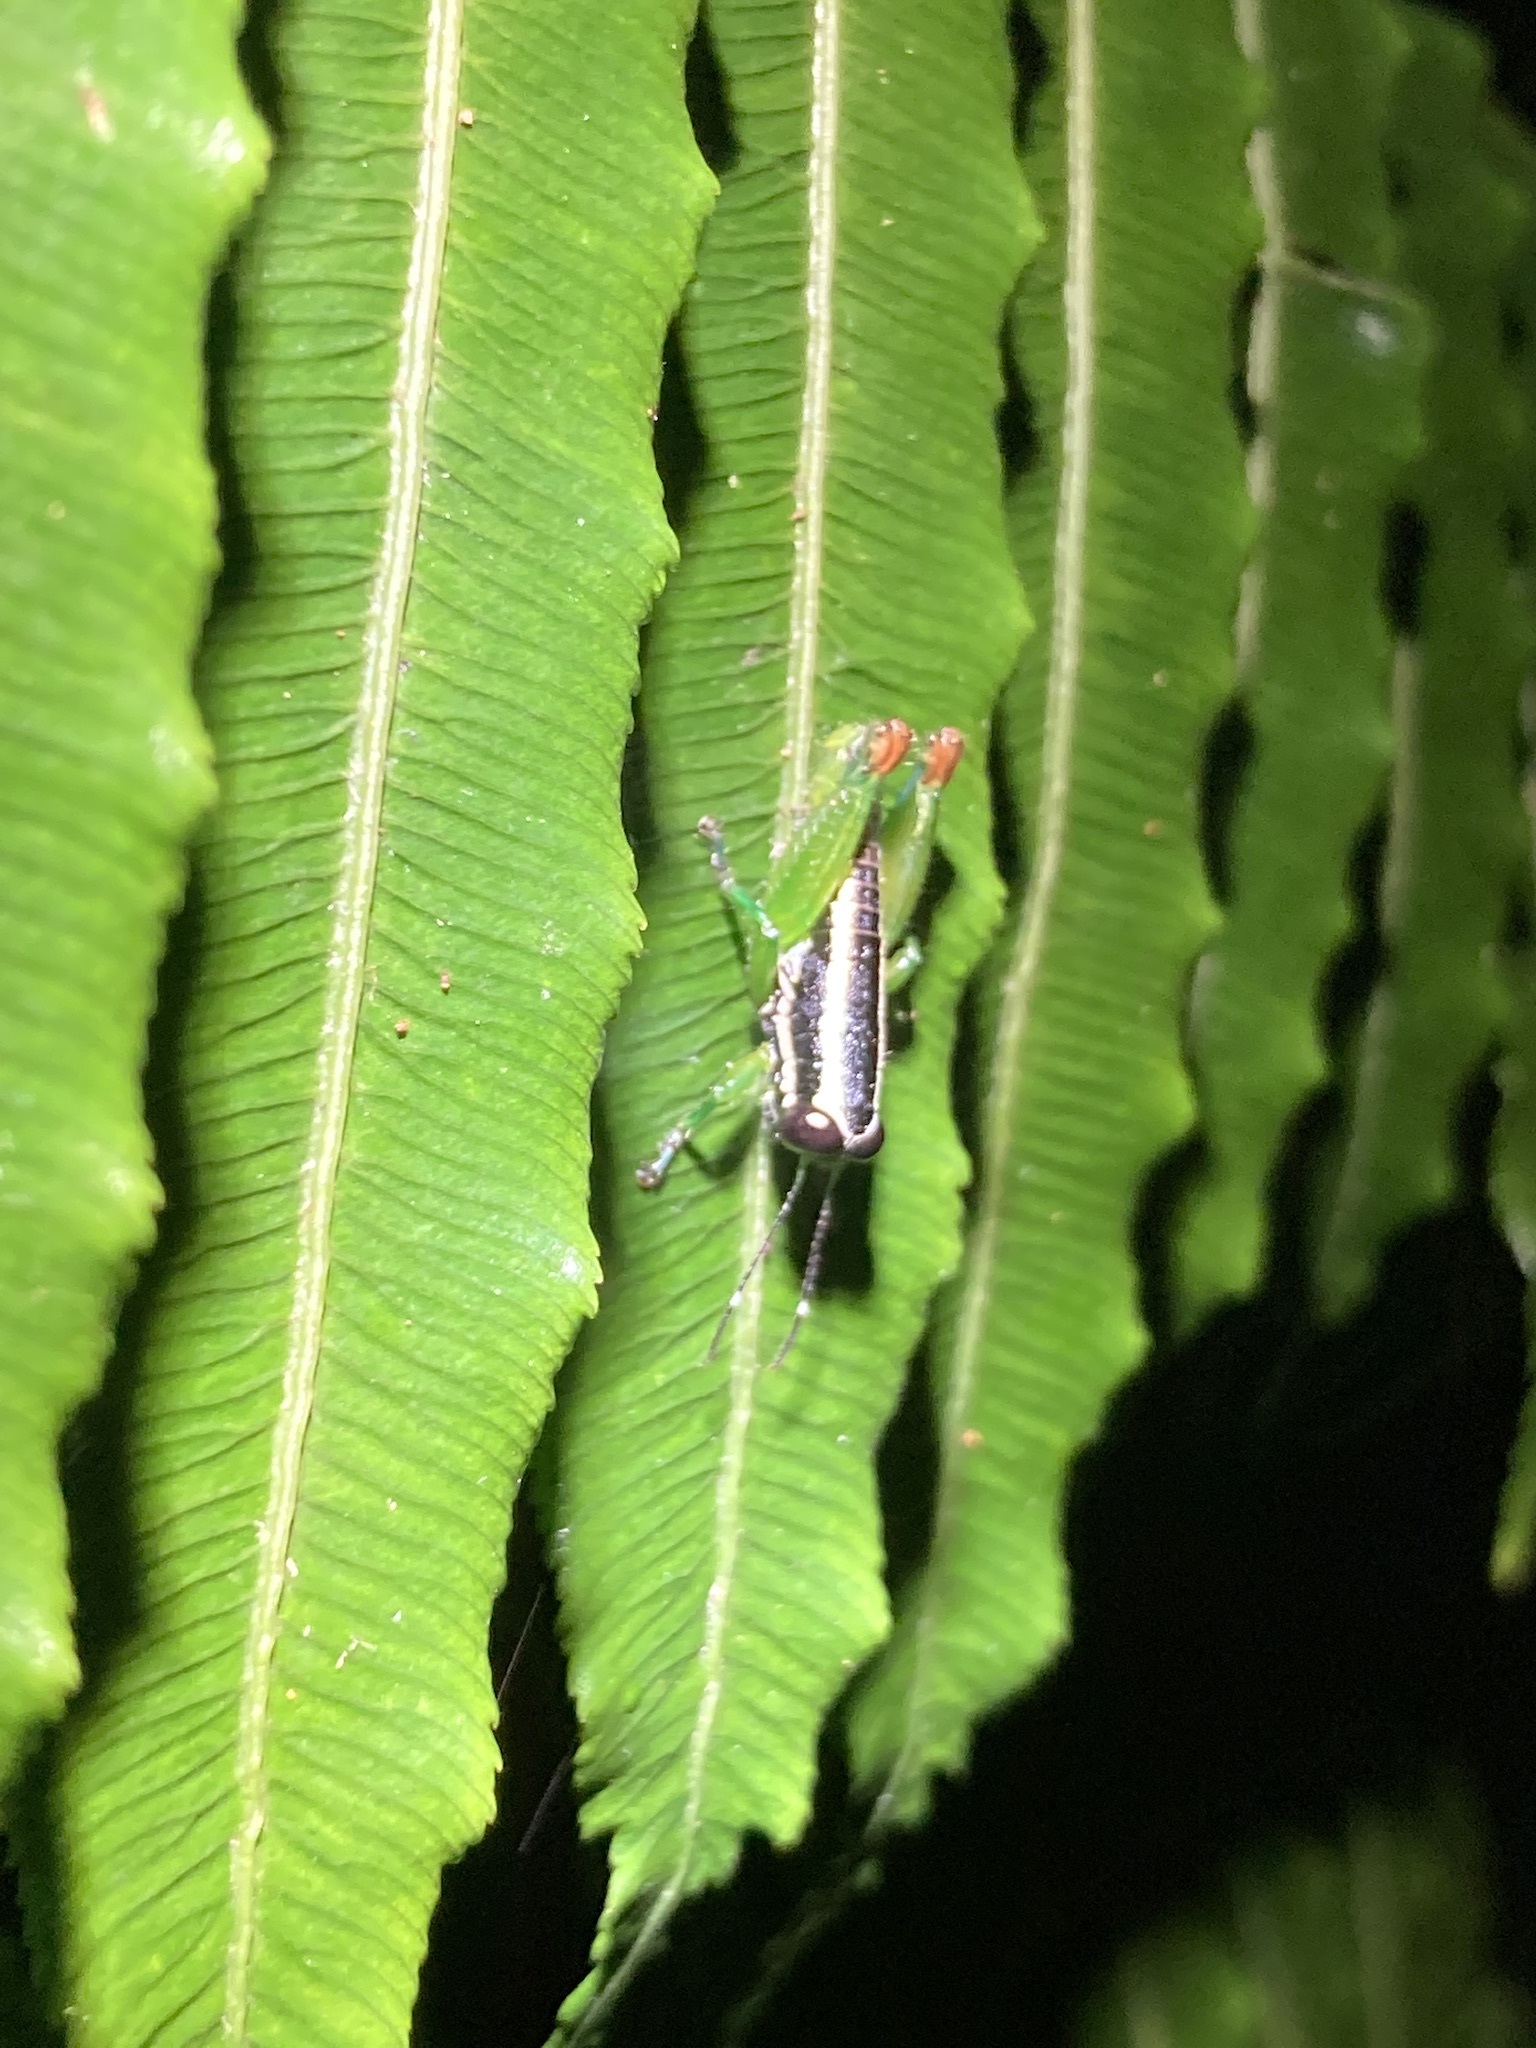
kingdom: Animalia
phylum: Arthropoda
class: Insecta
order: Orthoptera
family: Lentulidae
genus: Usambilla
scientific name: Usambilla affinis
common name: Uluguru striped grasshopper
